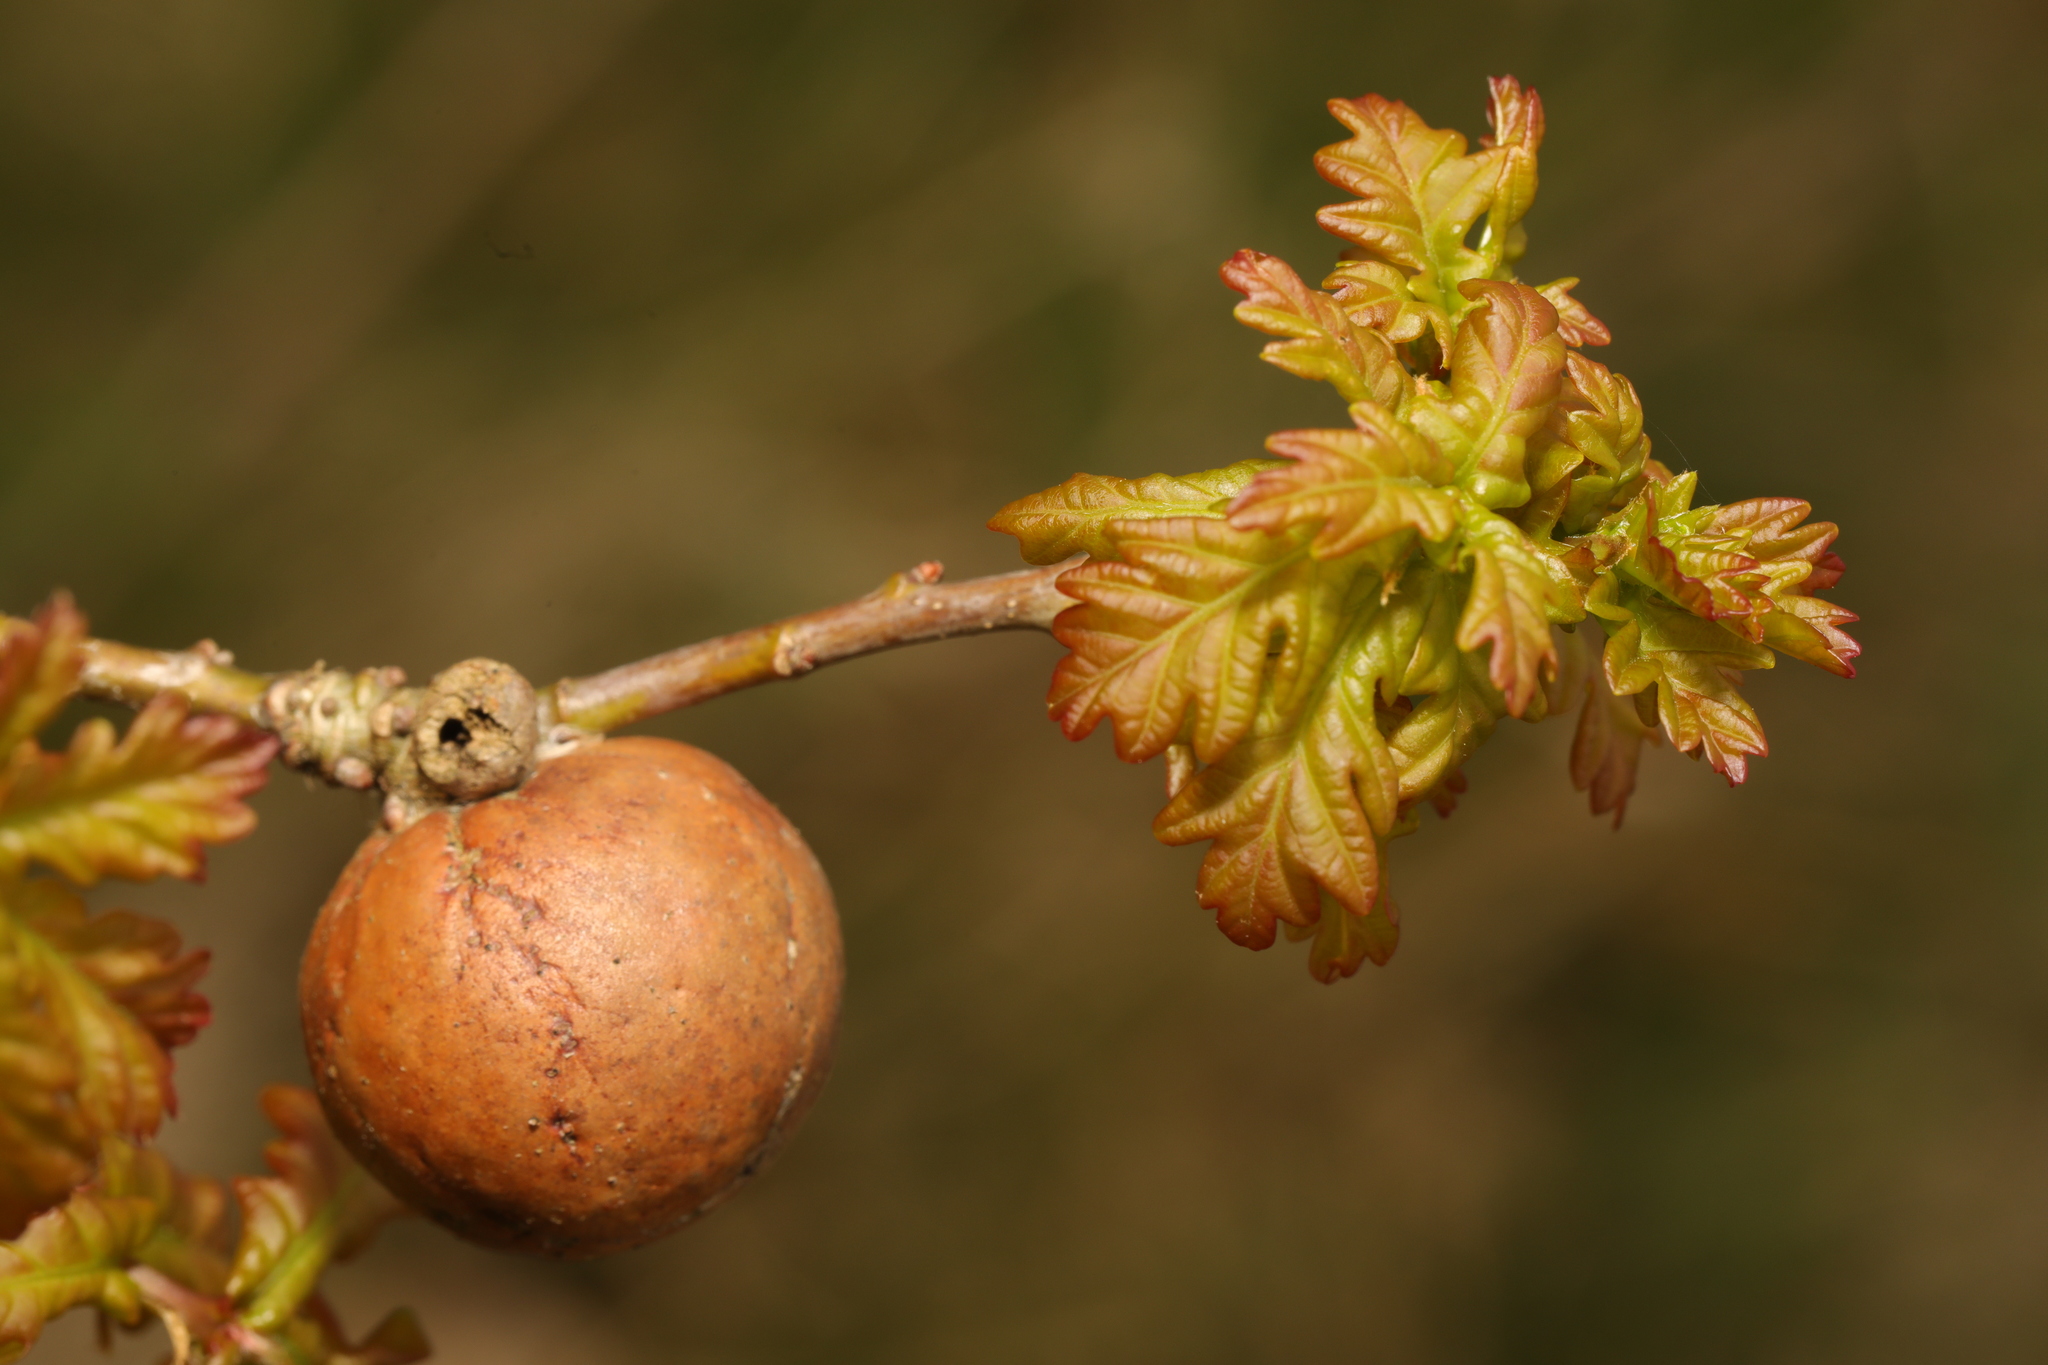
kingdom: Animalia
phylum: Arthropoda
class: Insecta
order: Hymenoptera
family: Cynipidae
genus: Andricus
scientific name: Andricus kollari
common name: Marble gall
